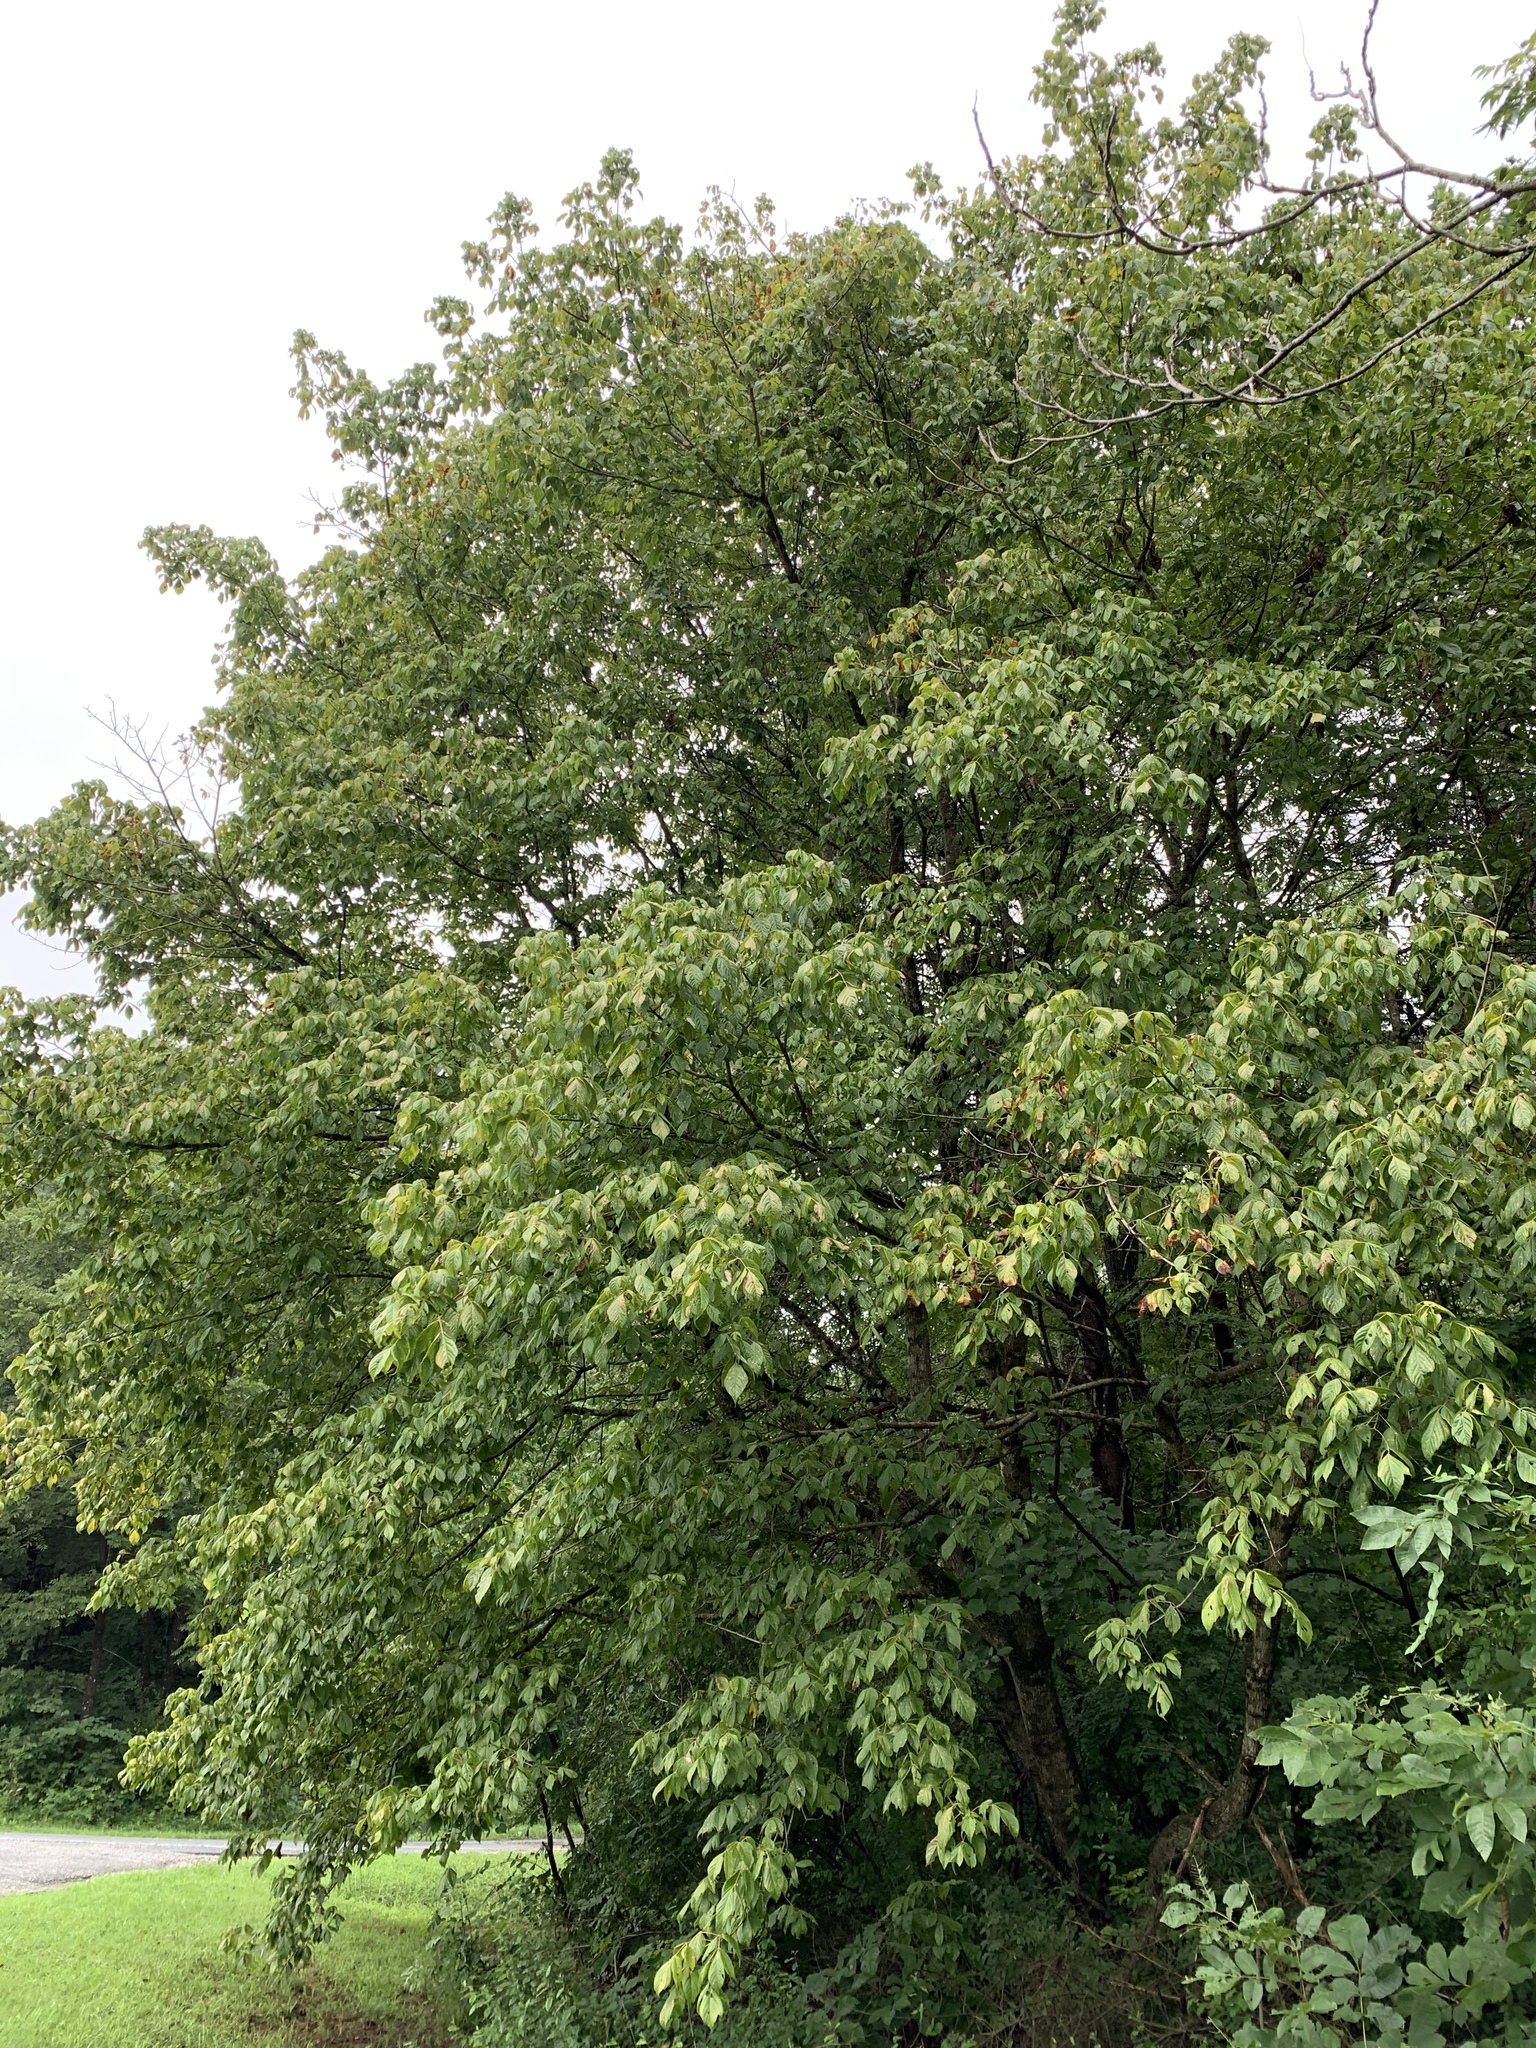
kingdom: Plantae
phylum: Tracheophyta
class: Magnoliopsida
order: Sapindales
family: Sapindaceae
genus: Acer
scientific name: Acer negundo
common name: Ashleaf maple
